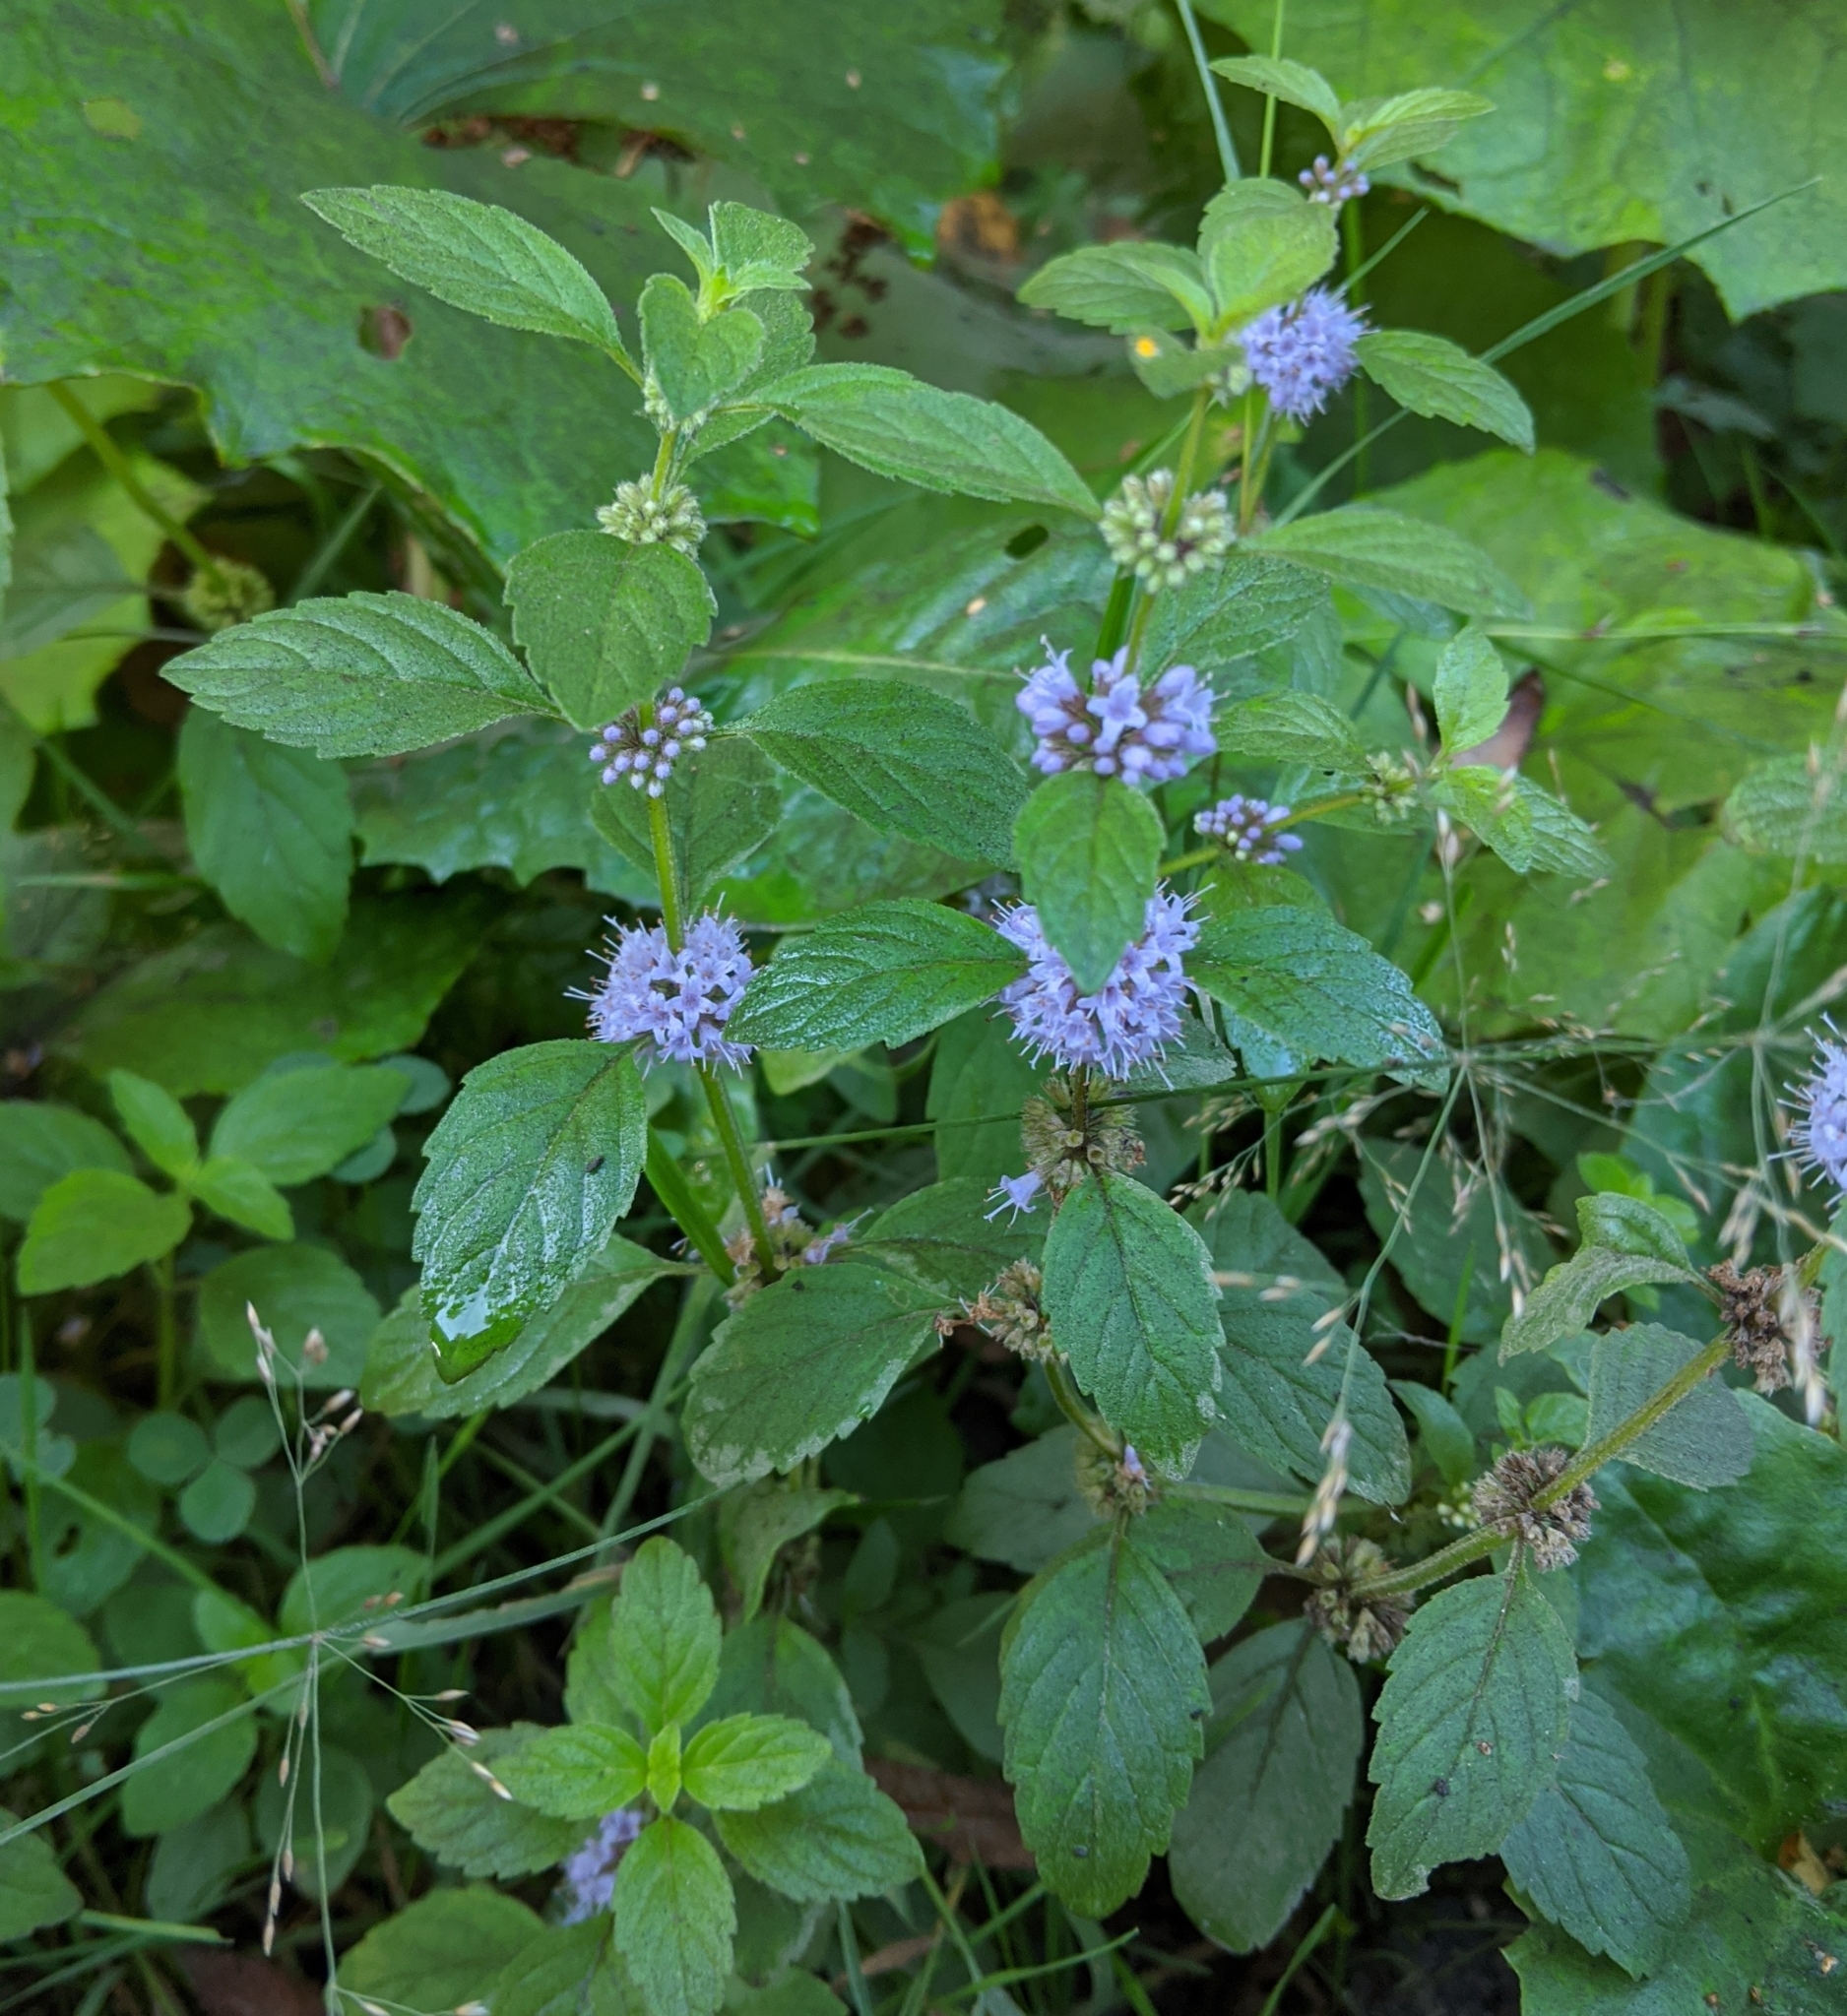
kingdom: Plantae
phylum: Tracheophyta
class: Magnoliopsida
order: Lamiales
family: Lamiaceae
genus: Mentha
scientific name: Mentha arvensis
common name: Corn mint
